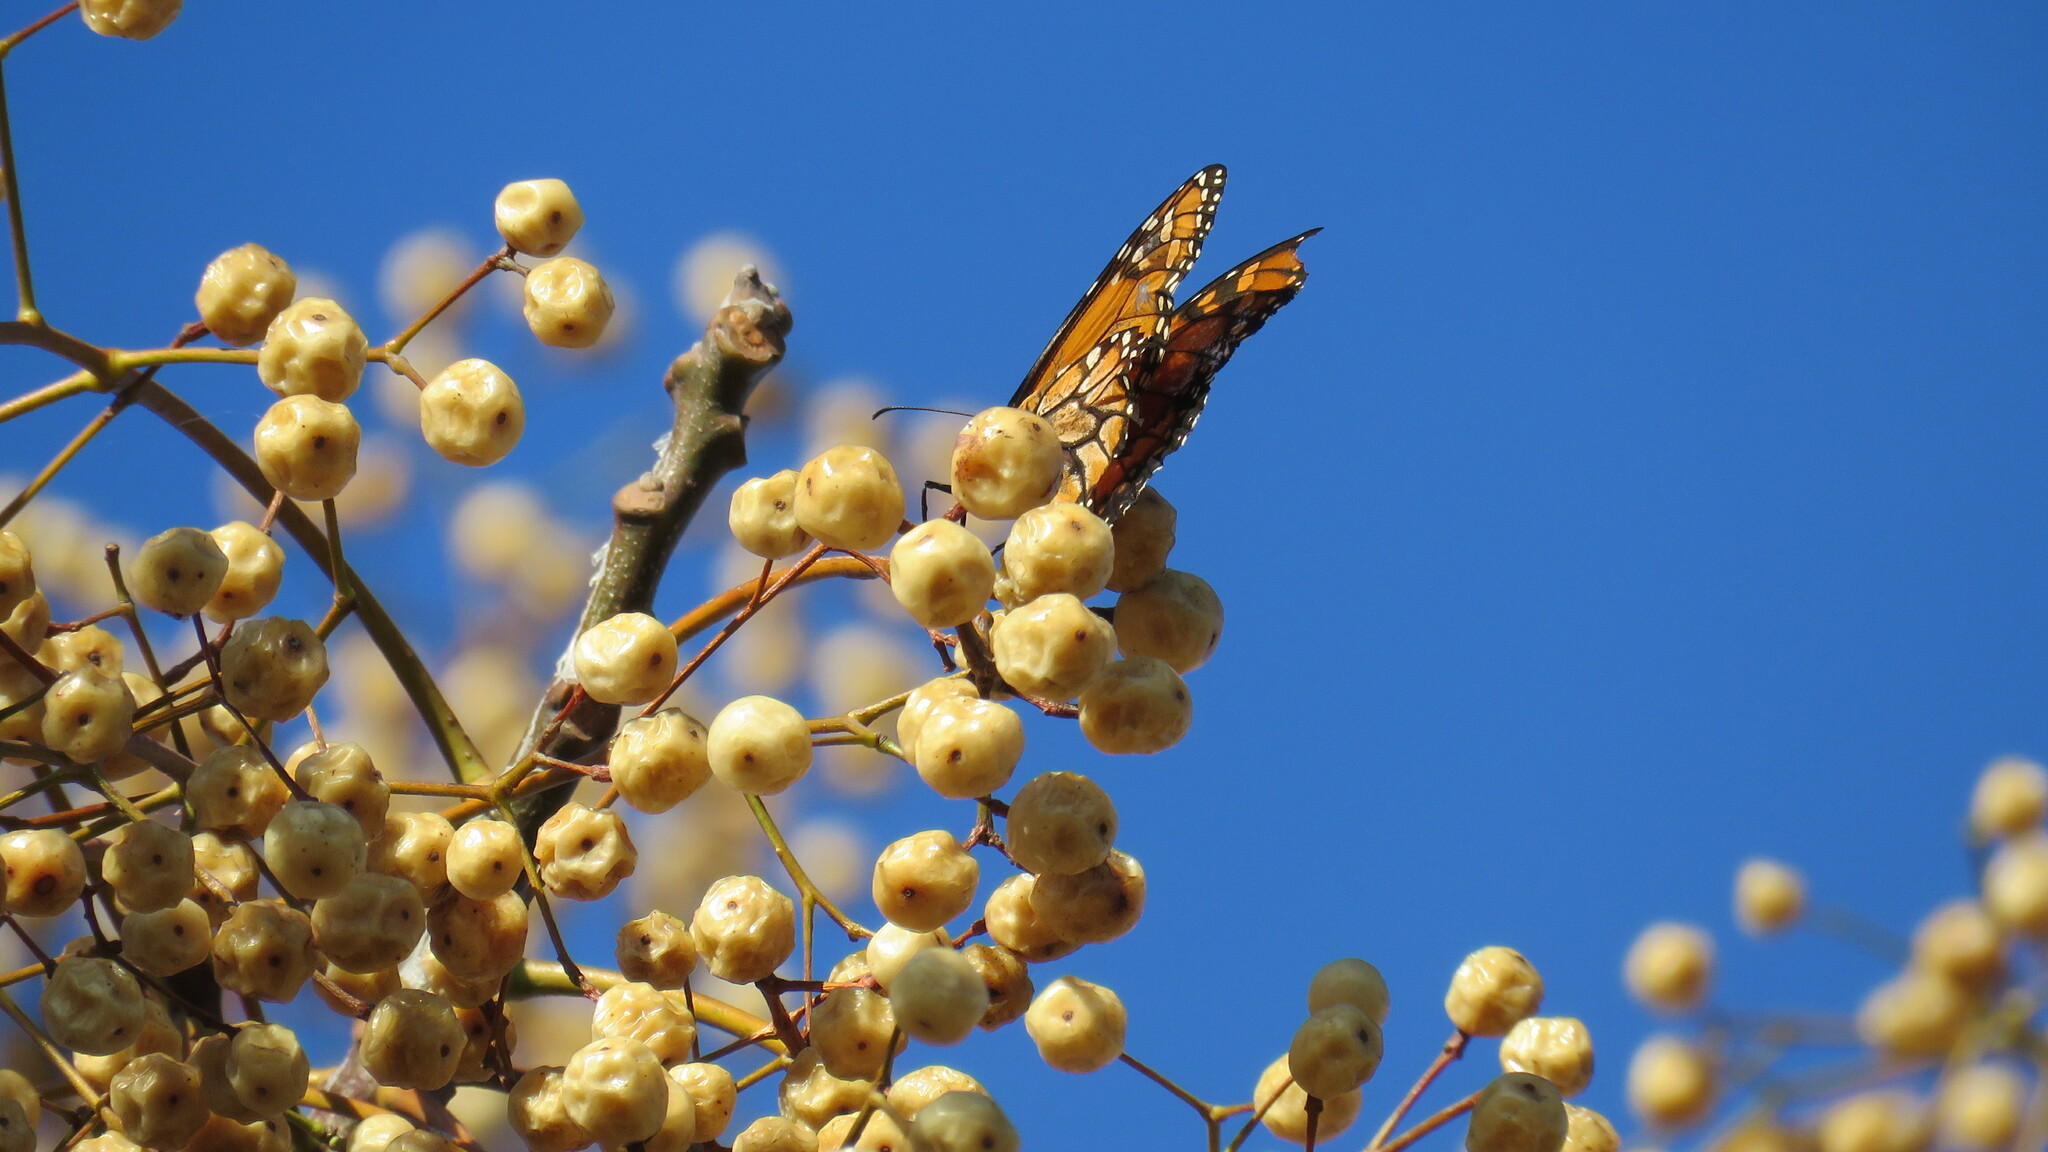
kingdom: Animalia
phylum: Arthropoda
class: Insecta
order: Lepidoptera
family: Nymphalidae
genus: Danaus
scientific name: Danaus erippus
